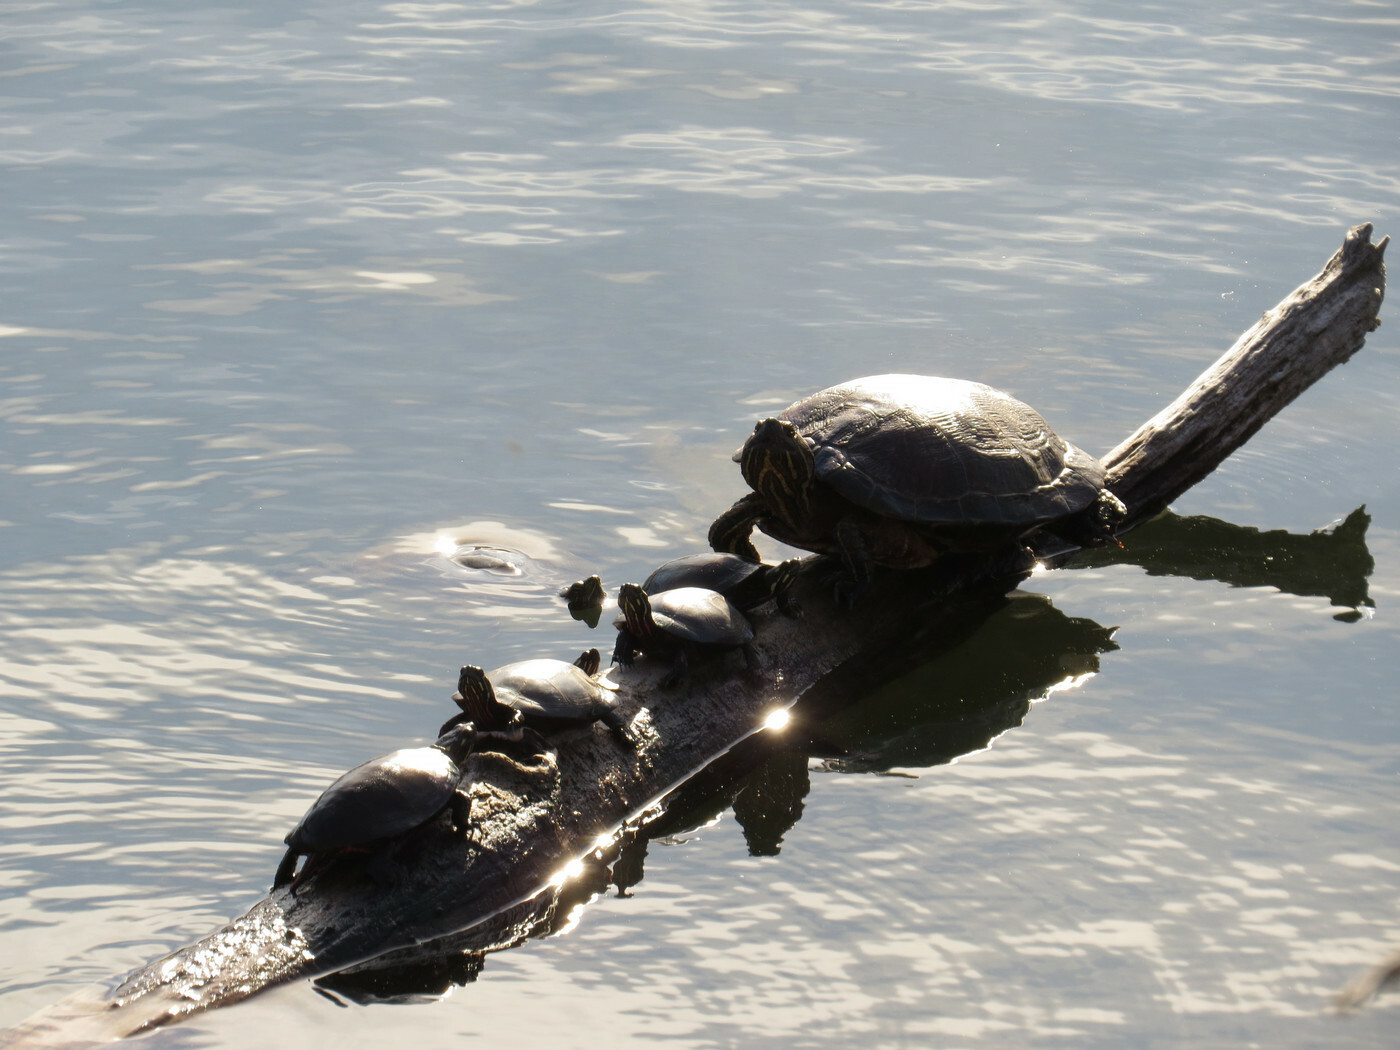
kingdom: Animalia
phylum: Chordata
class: Testudines
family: Emydidae
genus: Chrysemys
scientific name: Chrysemys picta
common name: Painted turtle
